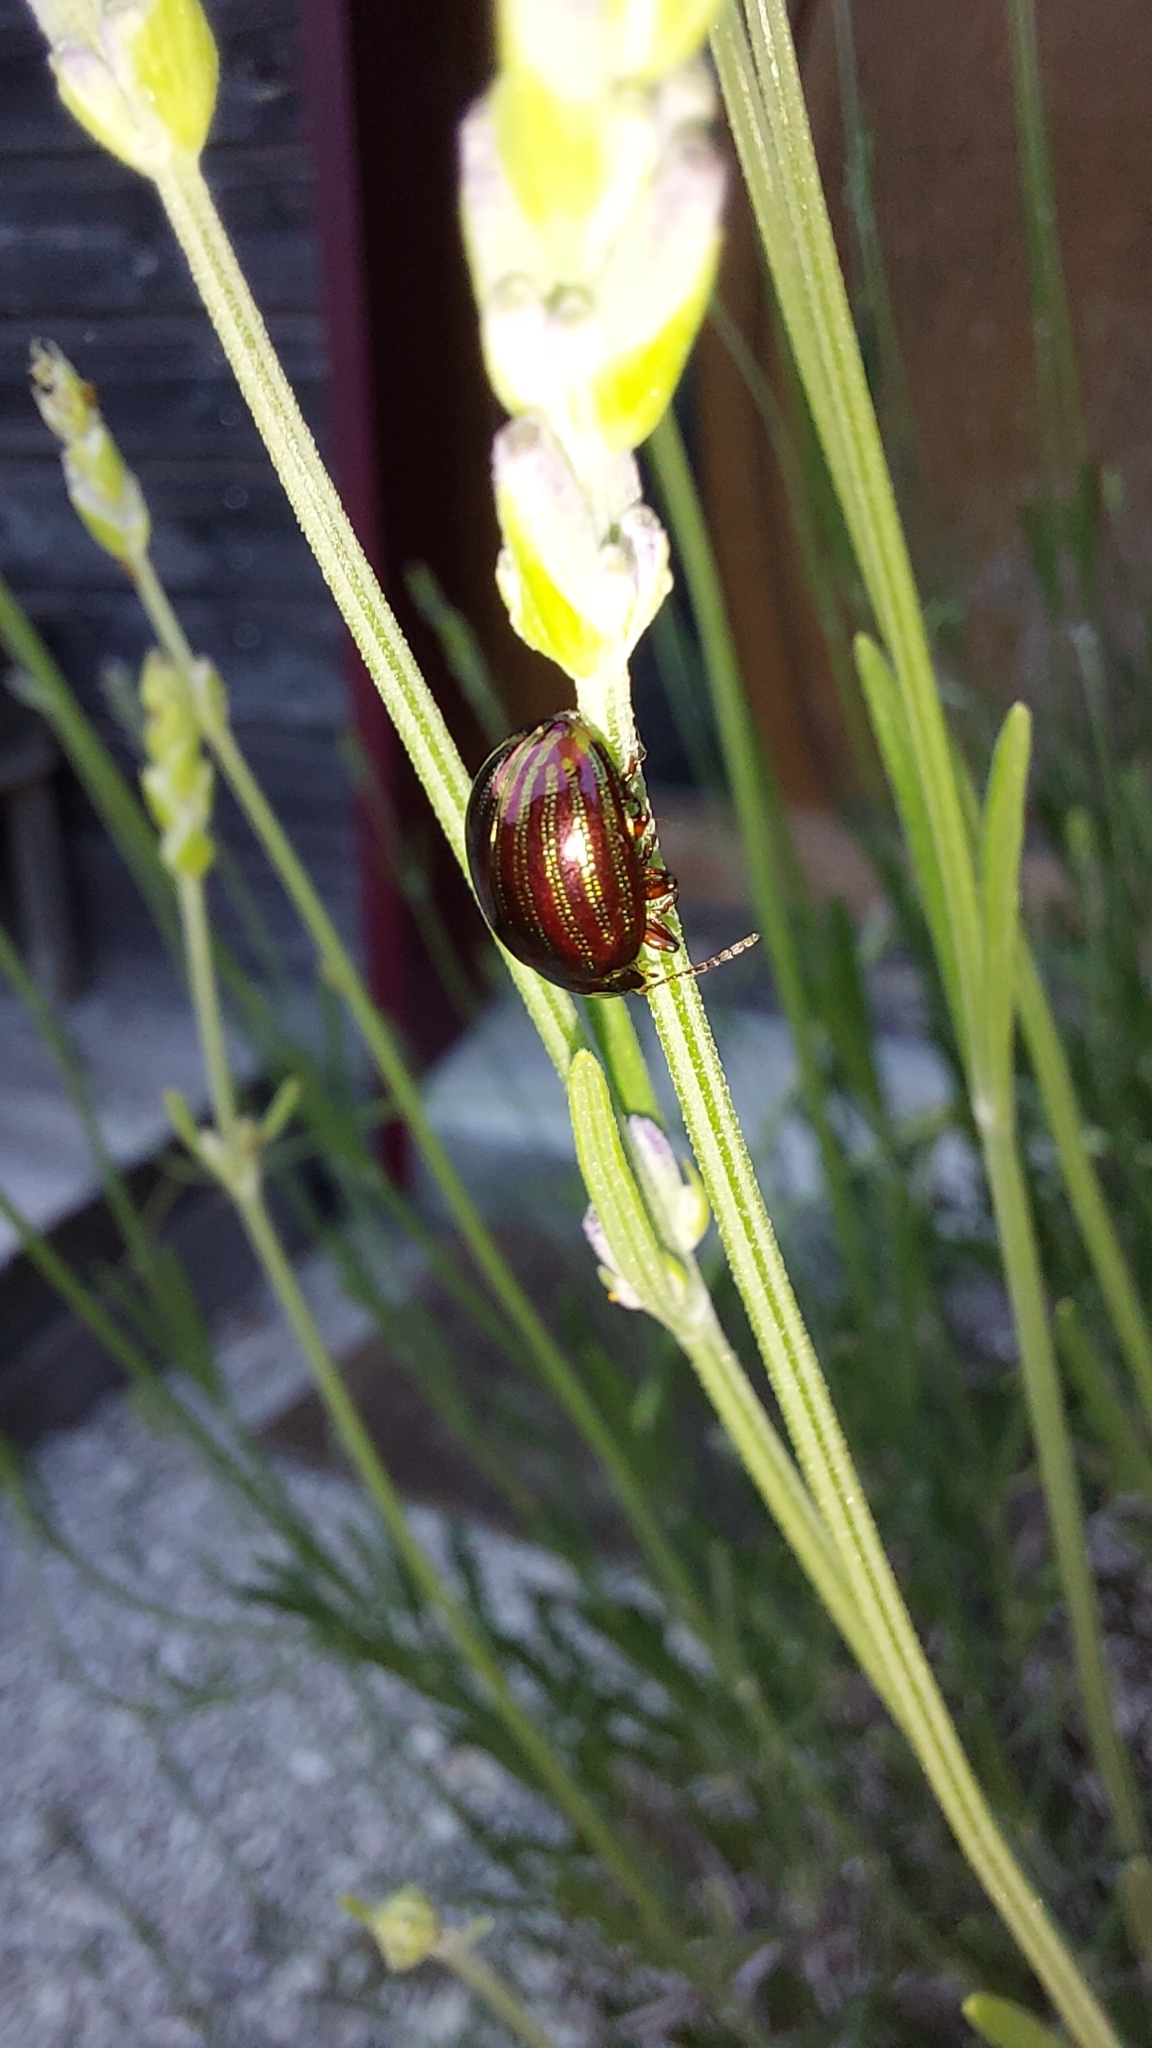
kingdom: Animalia
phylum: Arthropoda
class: Insecta
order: Coleoptera
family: Chrysomelidae
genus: Chrysolina
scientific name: Chrysolina americana
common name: Rosemary beetle
